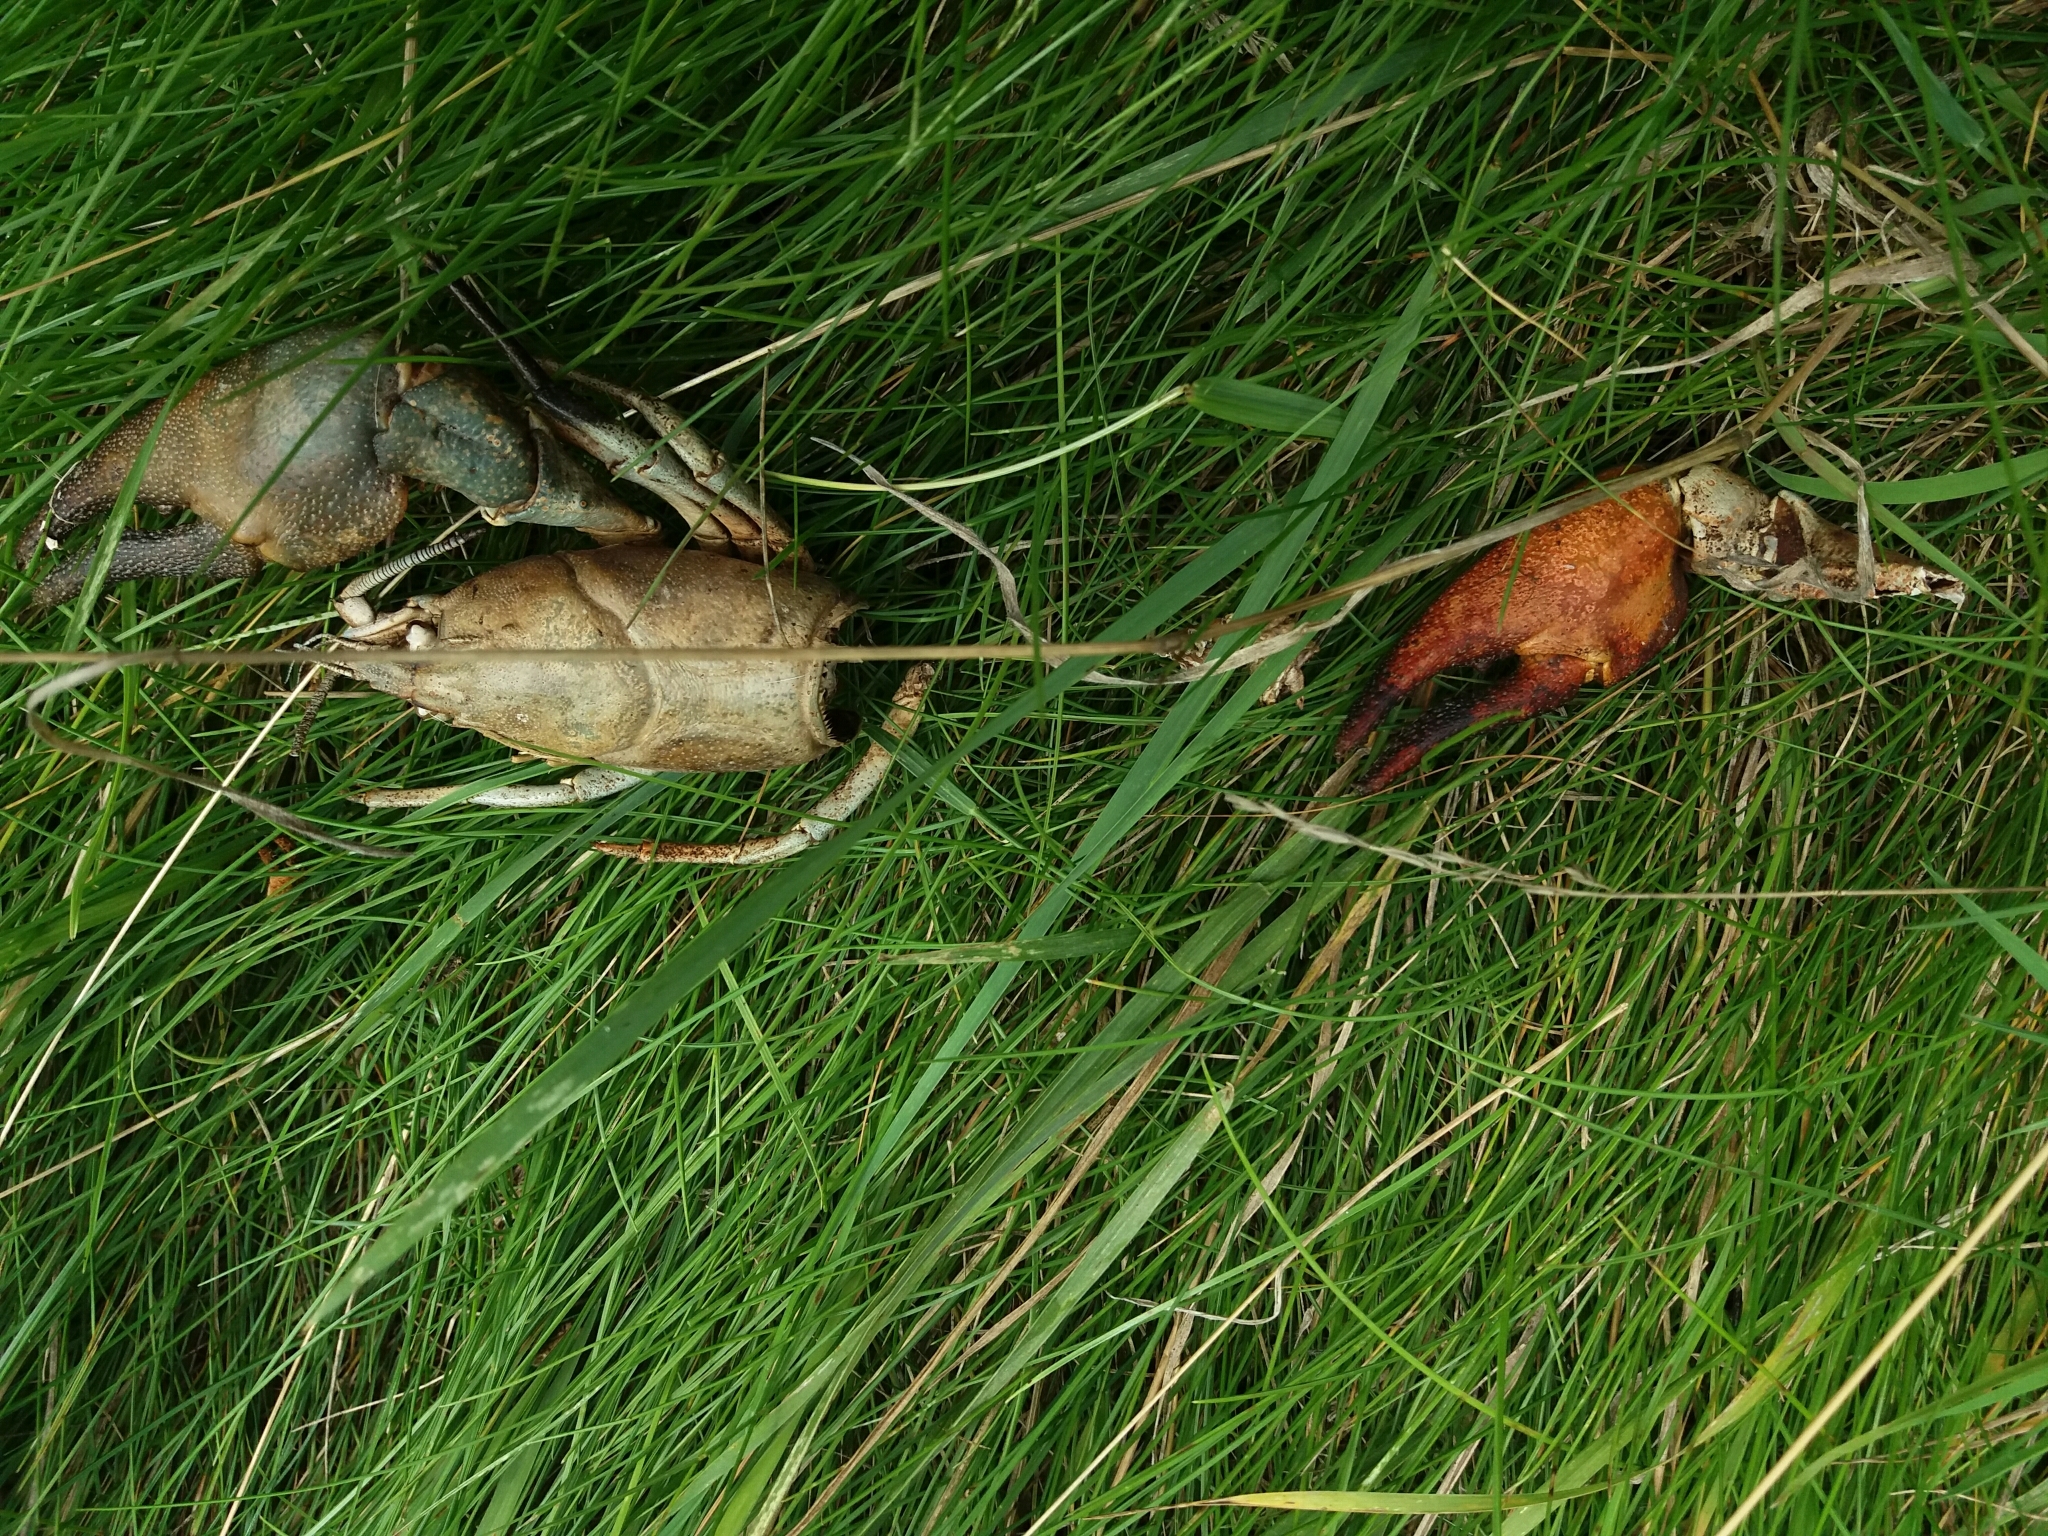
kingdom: Animalia
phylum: Arthropoda
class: Malacostraca
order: Decapoda
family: Astacidae
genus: Pacifastacus
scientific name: Pacifastacus leniusculus
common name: Signal crayfish
